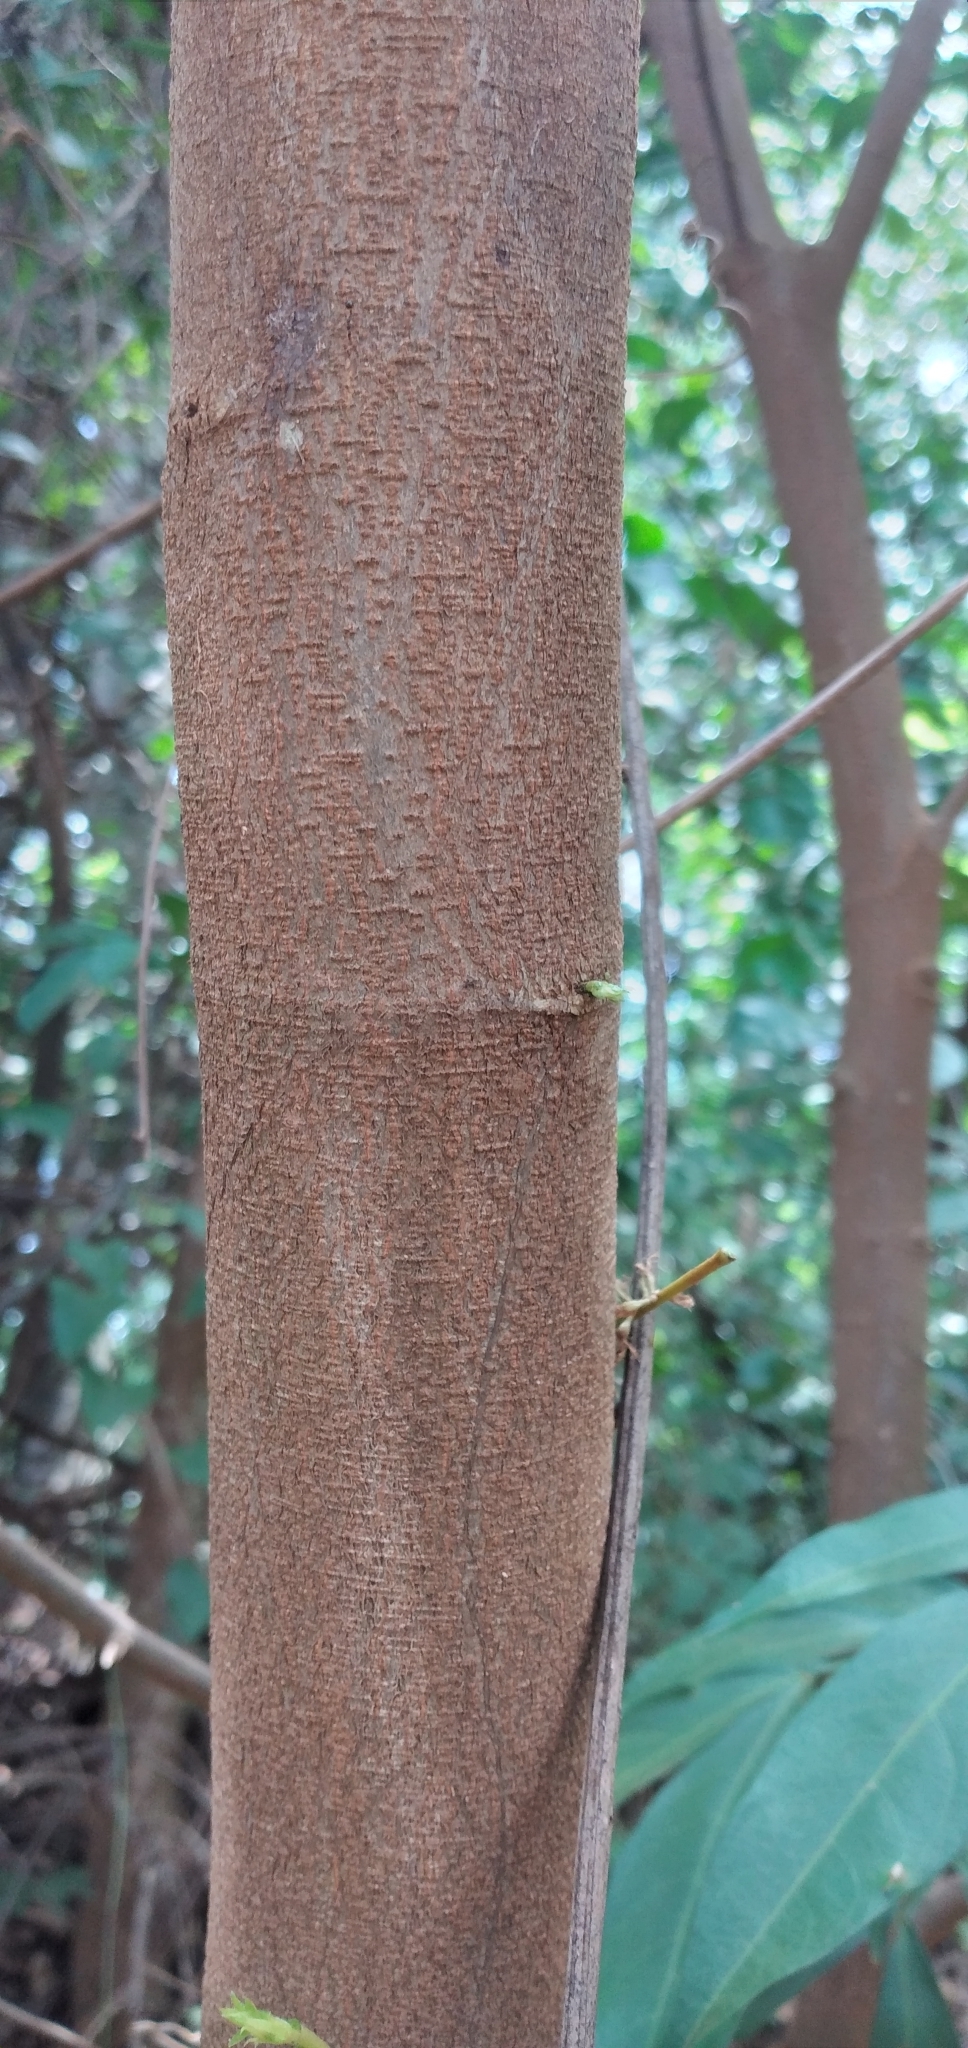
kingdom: Plantae
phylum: Tracheophyta
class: Magnoliopsida
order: Fabales
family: Fabaceae
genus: Inga
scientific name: Inga marginata
